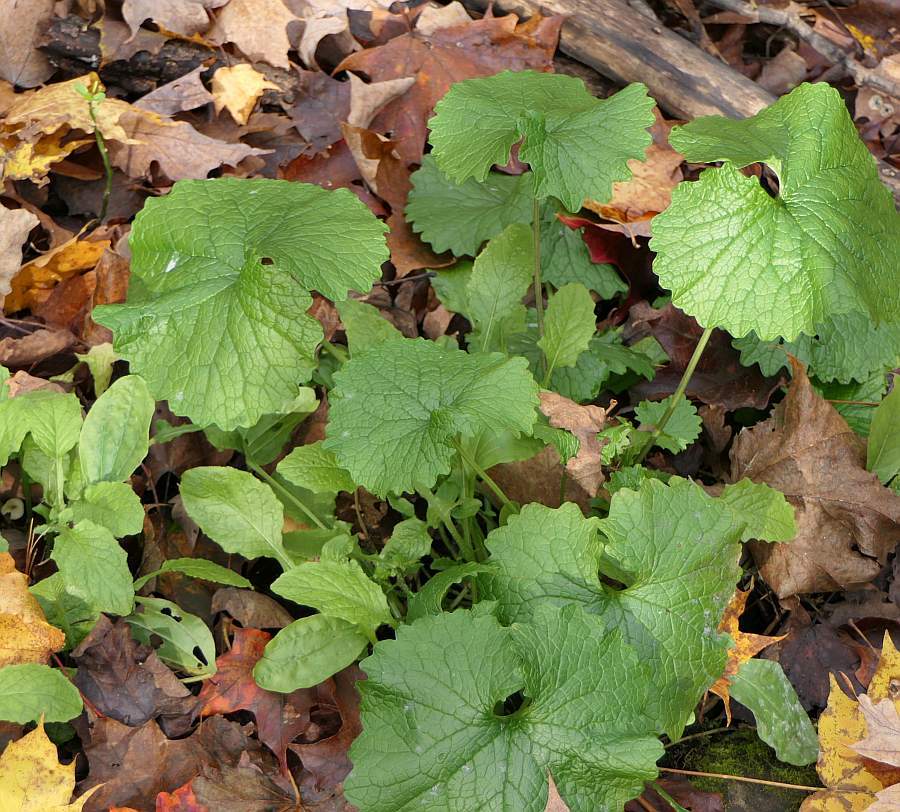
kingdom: Plantae
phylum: Tracheophyta
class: Magnoliopsida
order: Brassicales
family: Brassicaceae
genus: Alliaria
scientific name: Alliaria petiolata
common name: Garlic mustard
